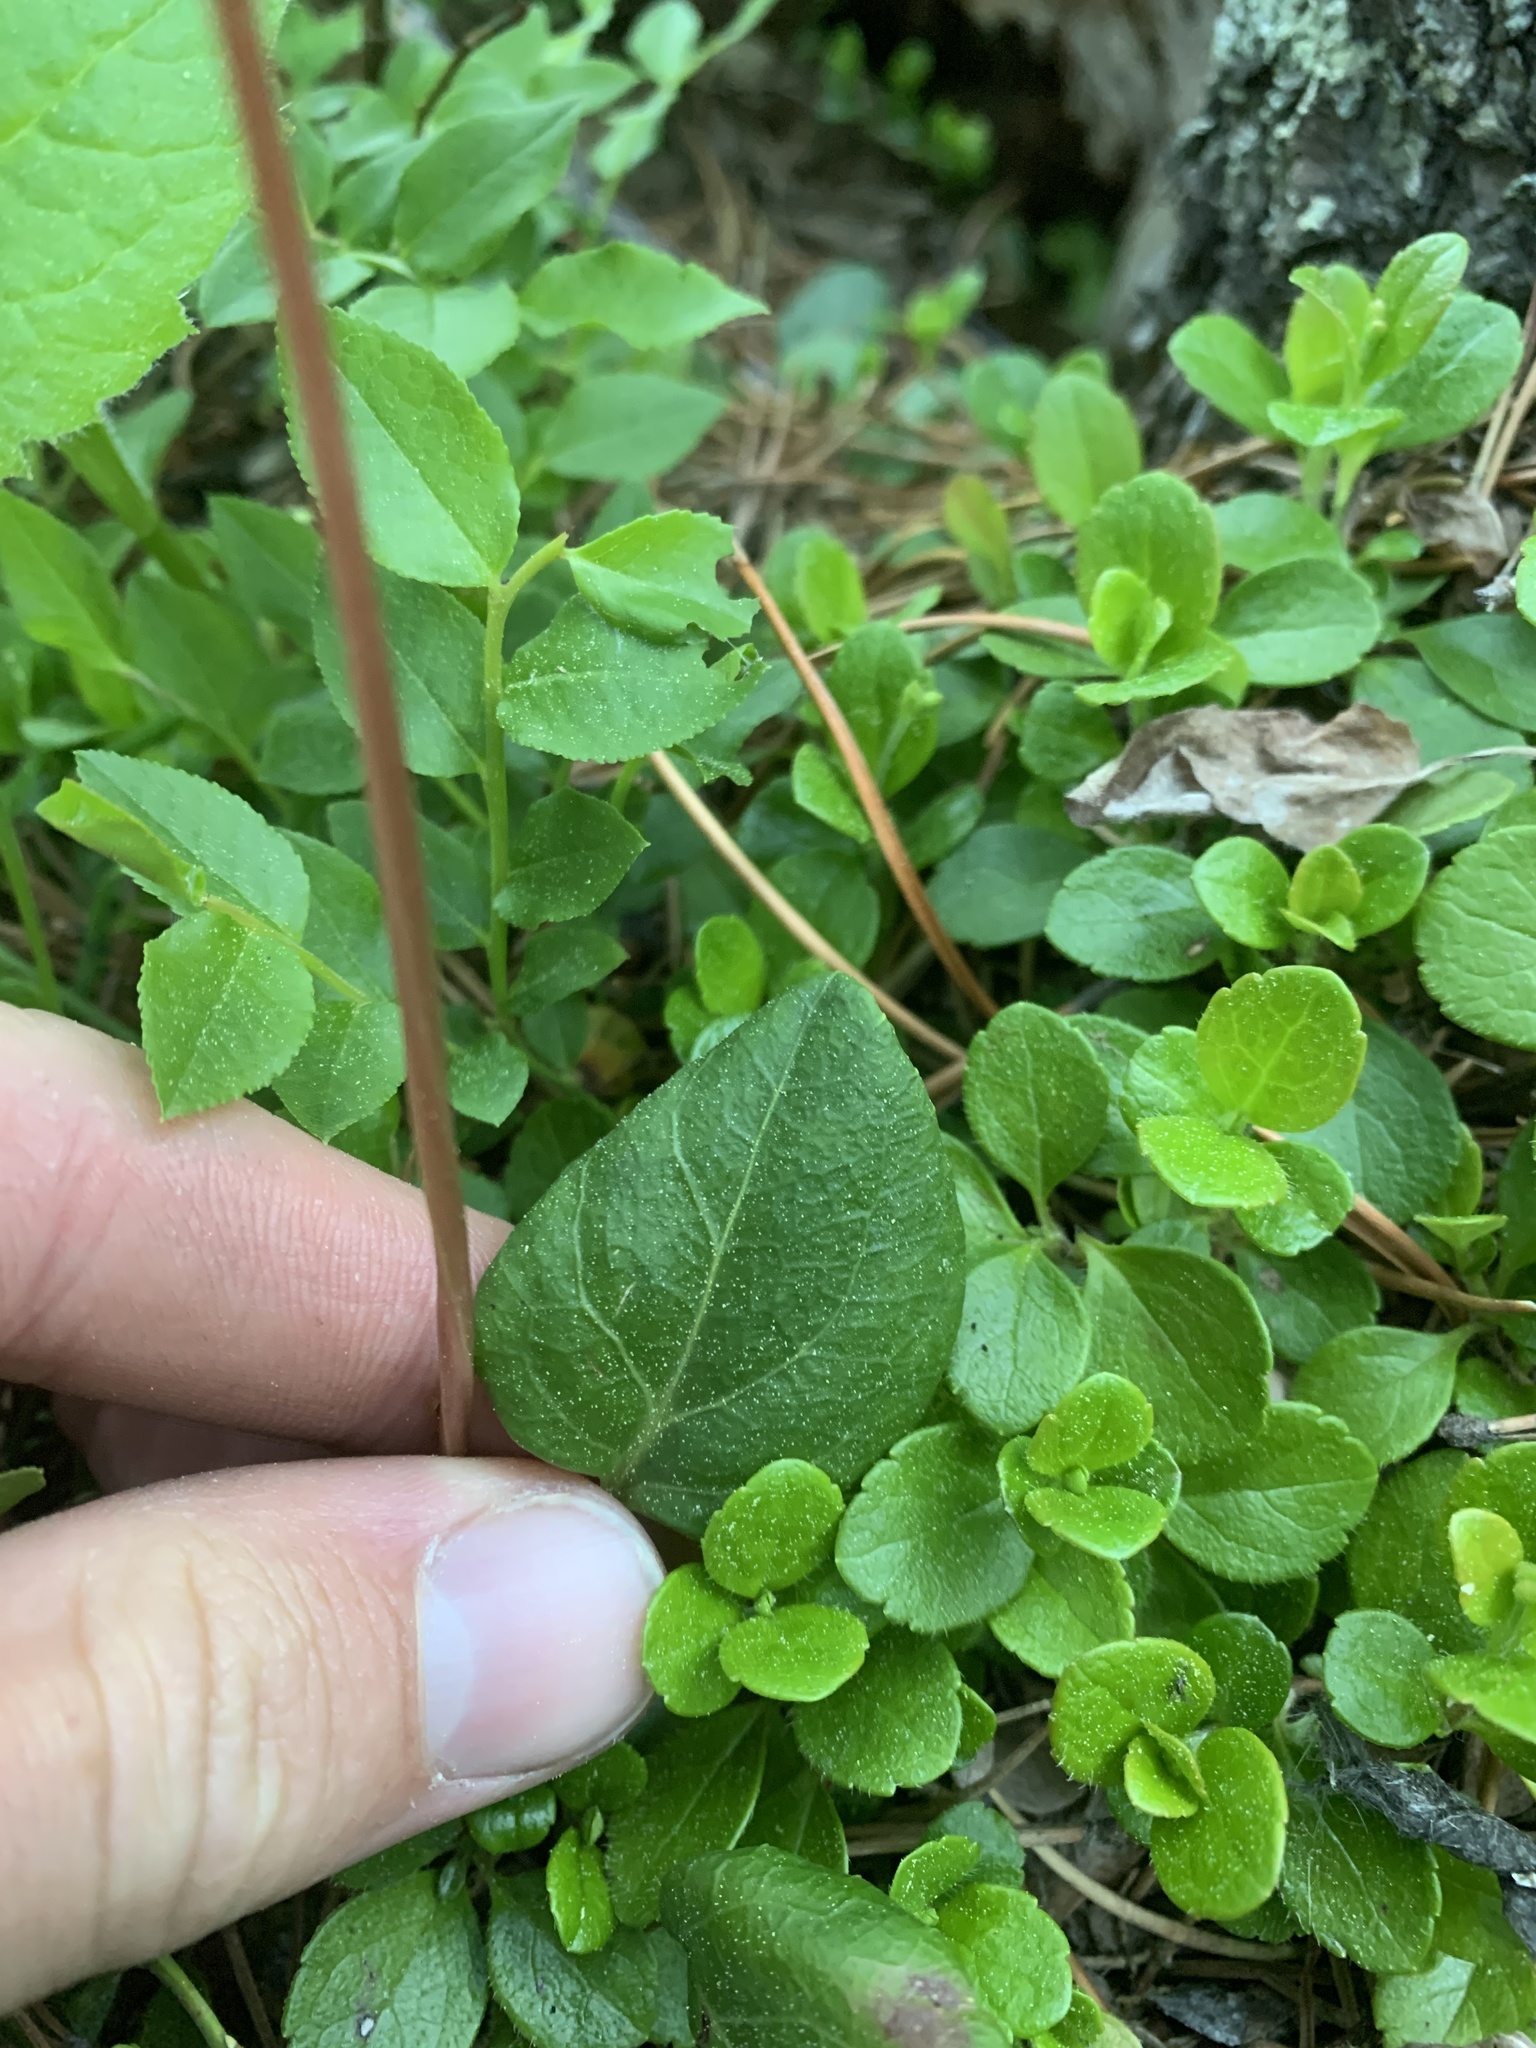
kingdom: Plantae
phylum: Tracheophyta
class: Magnoliopsida
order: Ericales
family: Ericaceae
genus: Pyrola
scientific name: Pyrola chlorantha
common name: Green wintergreen
